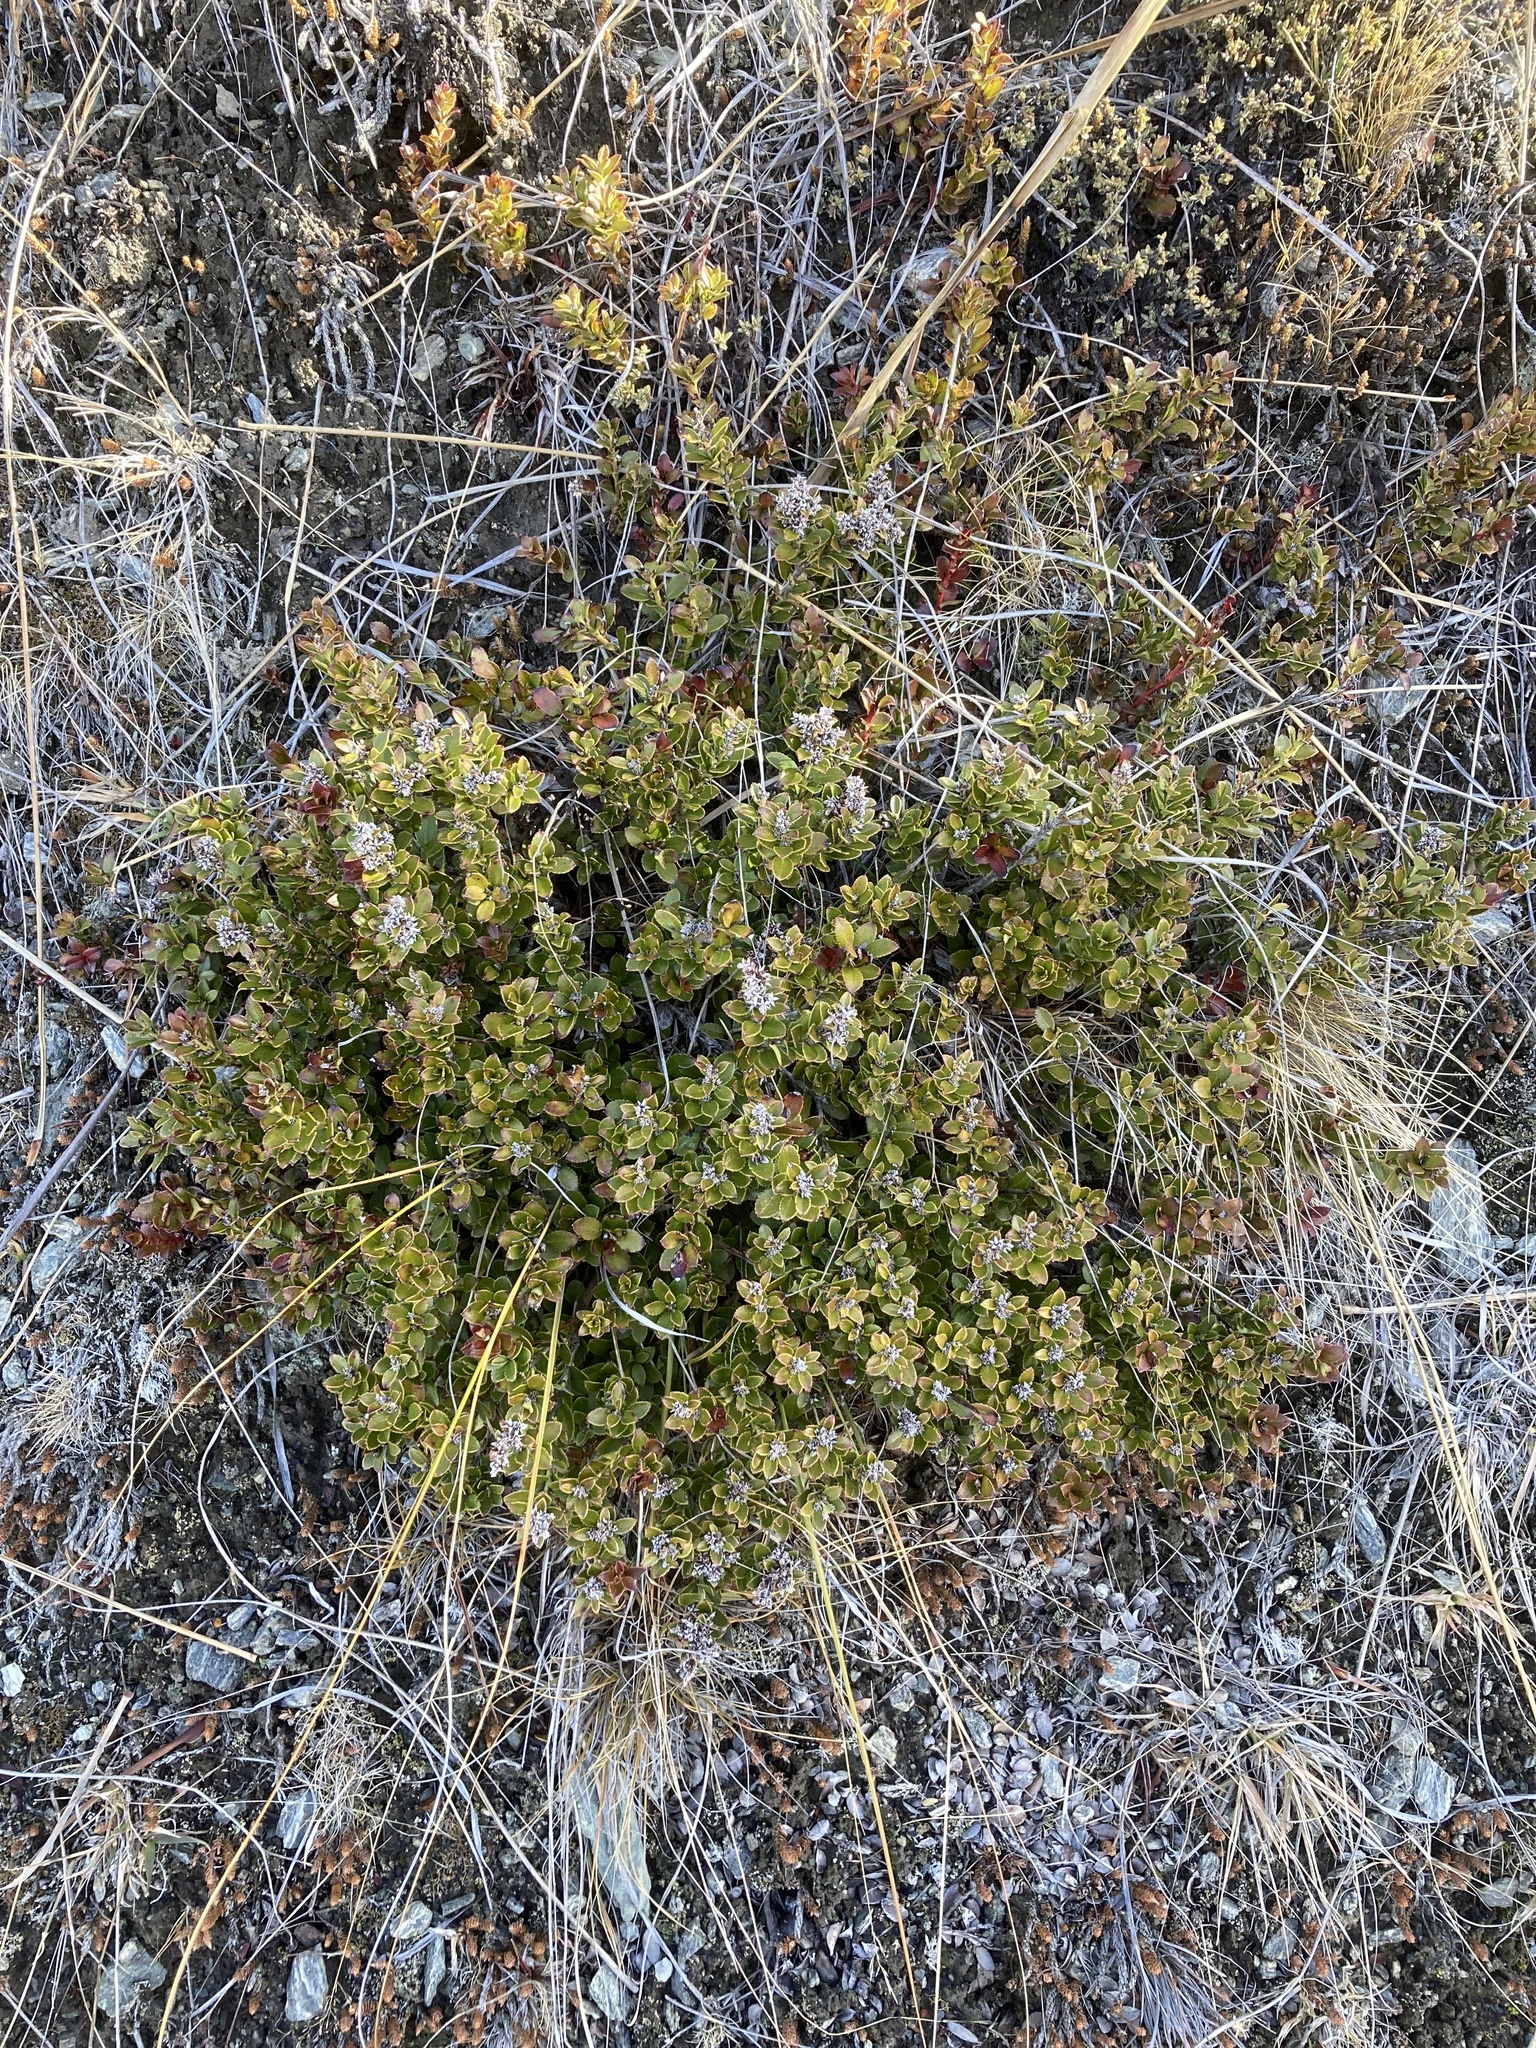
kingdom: Plantae
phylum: Tracheophyta
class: Magnoliopsida
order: Ericales
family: Ericaceae
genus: Gaultheria
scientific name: Gaultheria crassa
